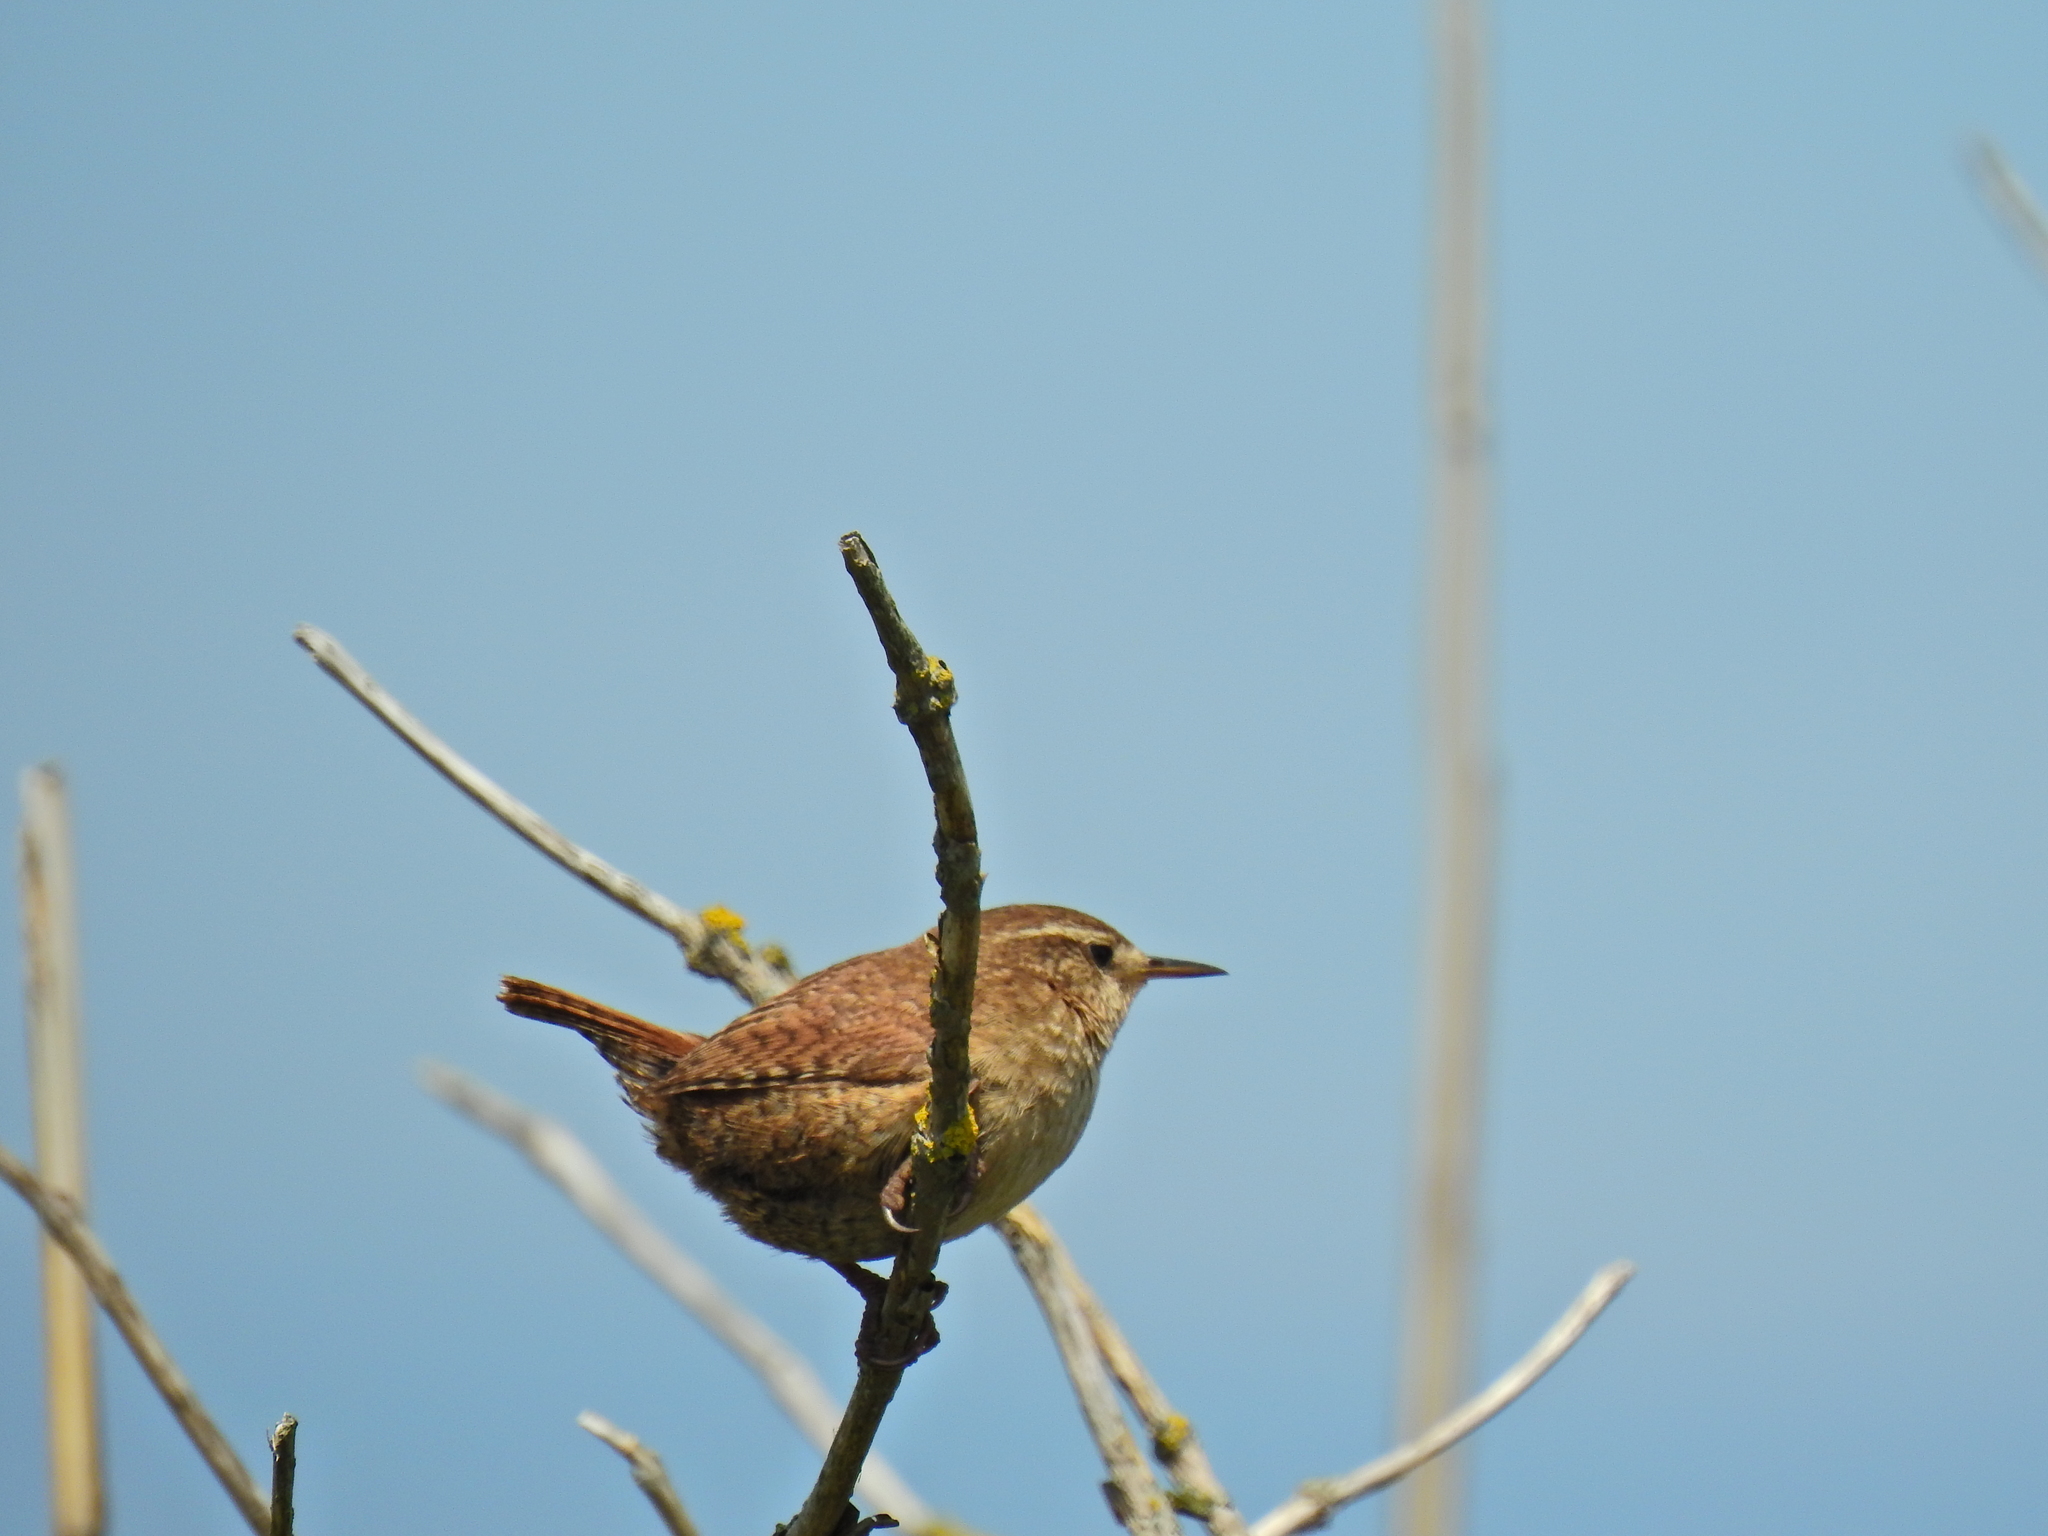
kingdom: Animalia
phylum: Chordata
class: Aves
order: Passeriformes
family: Troglodytidae
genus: Troglodytes
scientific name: Troglodytes troglodytes
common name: Eurasian wren
